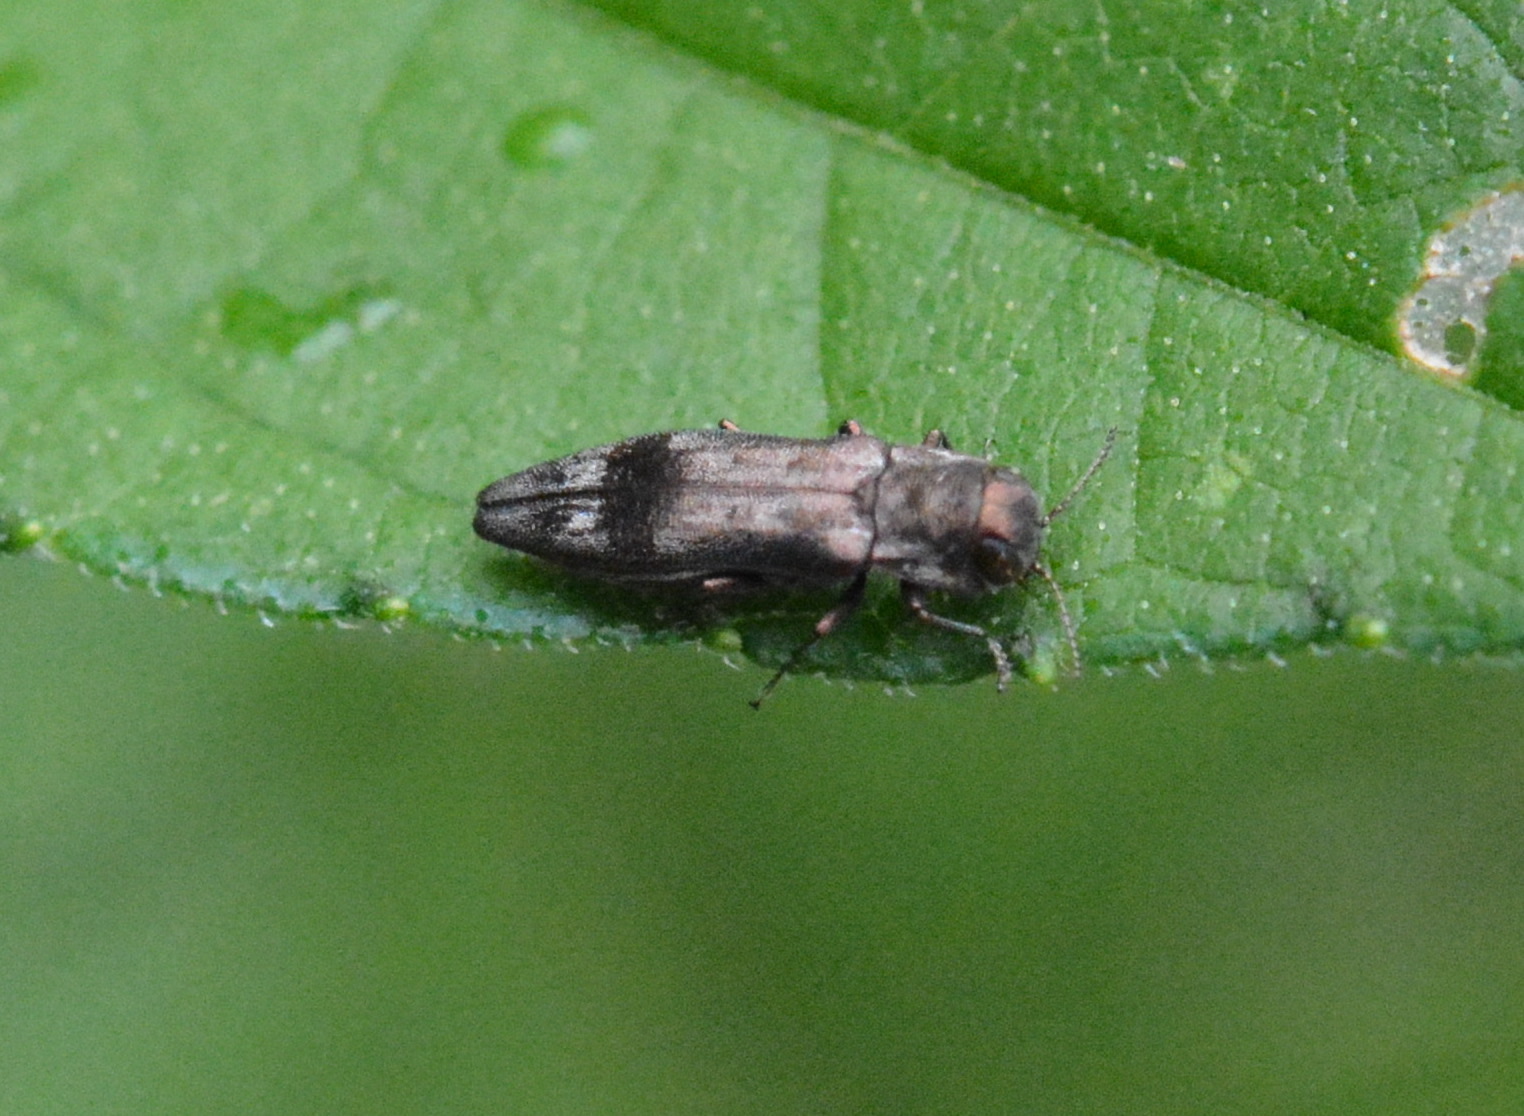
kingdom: Animalia
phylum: Arthropoda
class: Insecta
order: Coleoptera
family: Buprestidae
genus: Agrilus
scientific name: Agrilus lecontei
